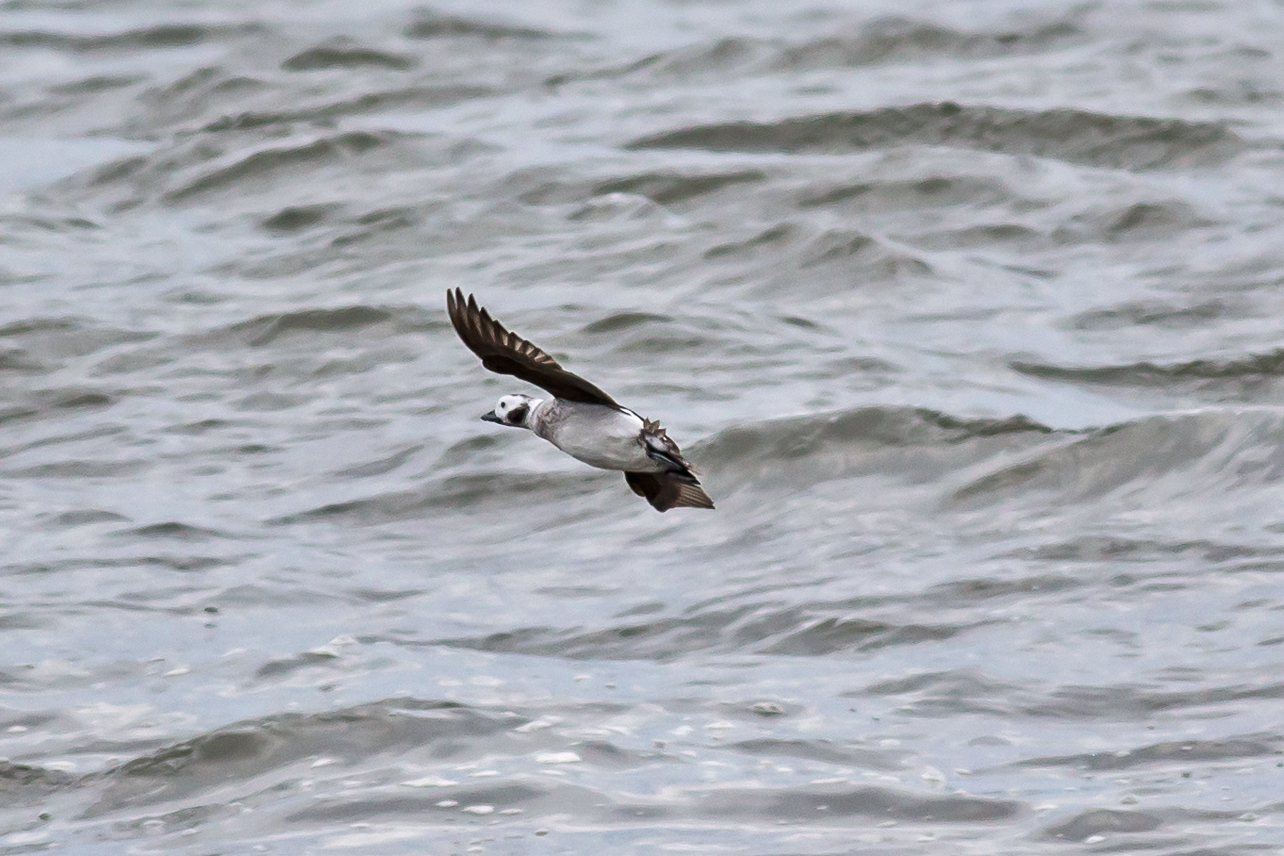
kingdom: Animalia
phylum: Chordata
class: Aves
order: Anseriformes
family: Anatidae
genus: Clangula
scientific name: Clangula hyemalis
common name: Long-tailed duck
